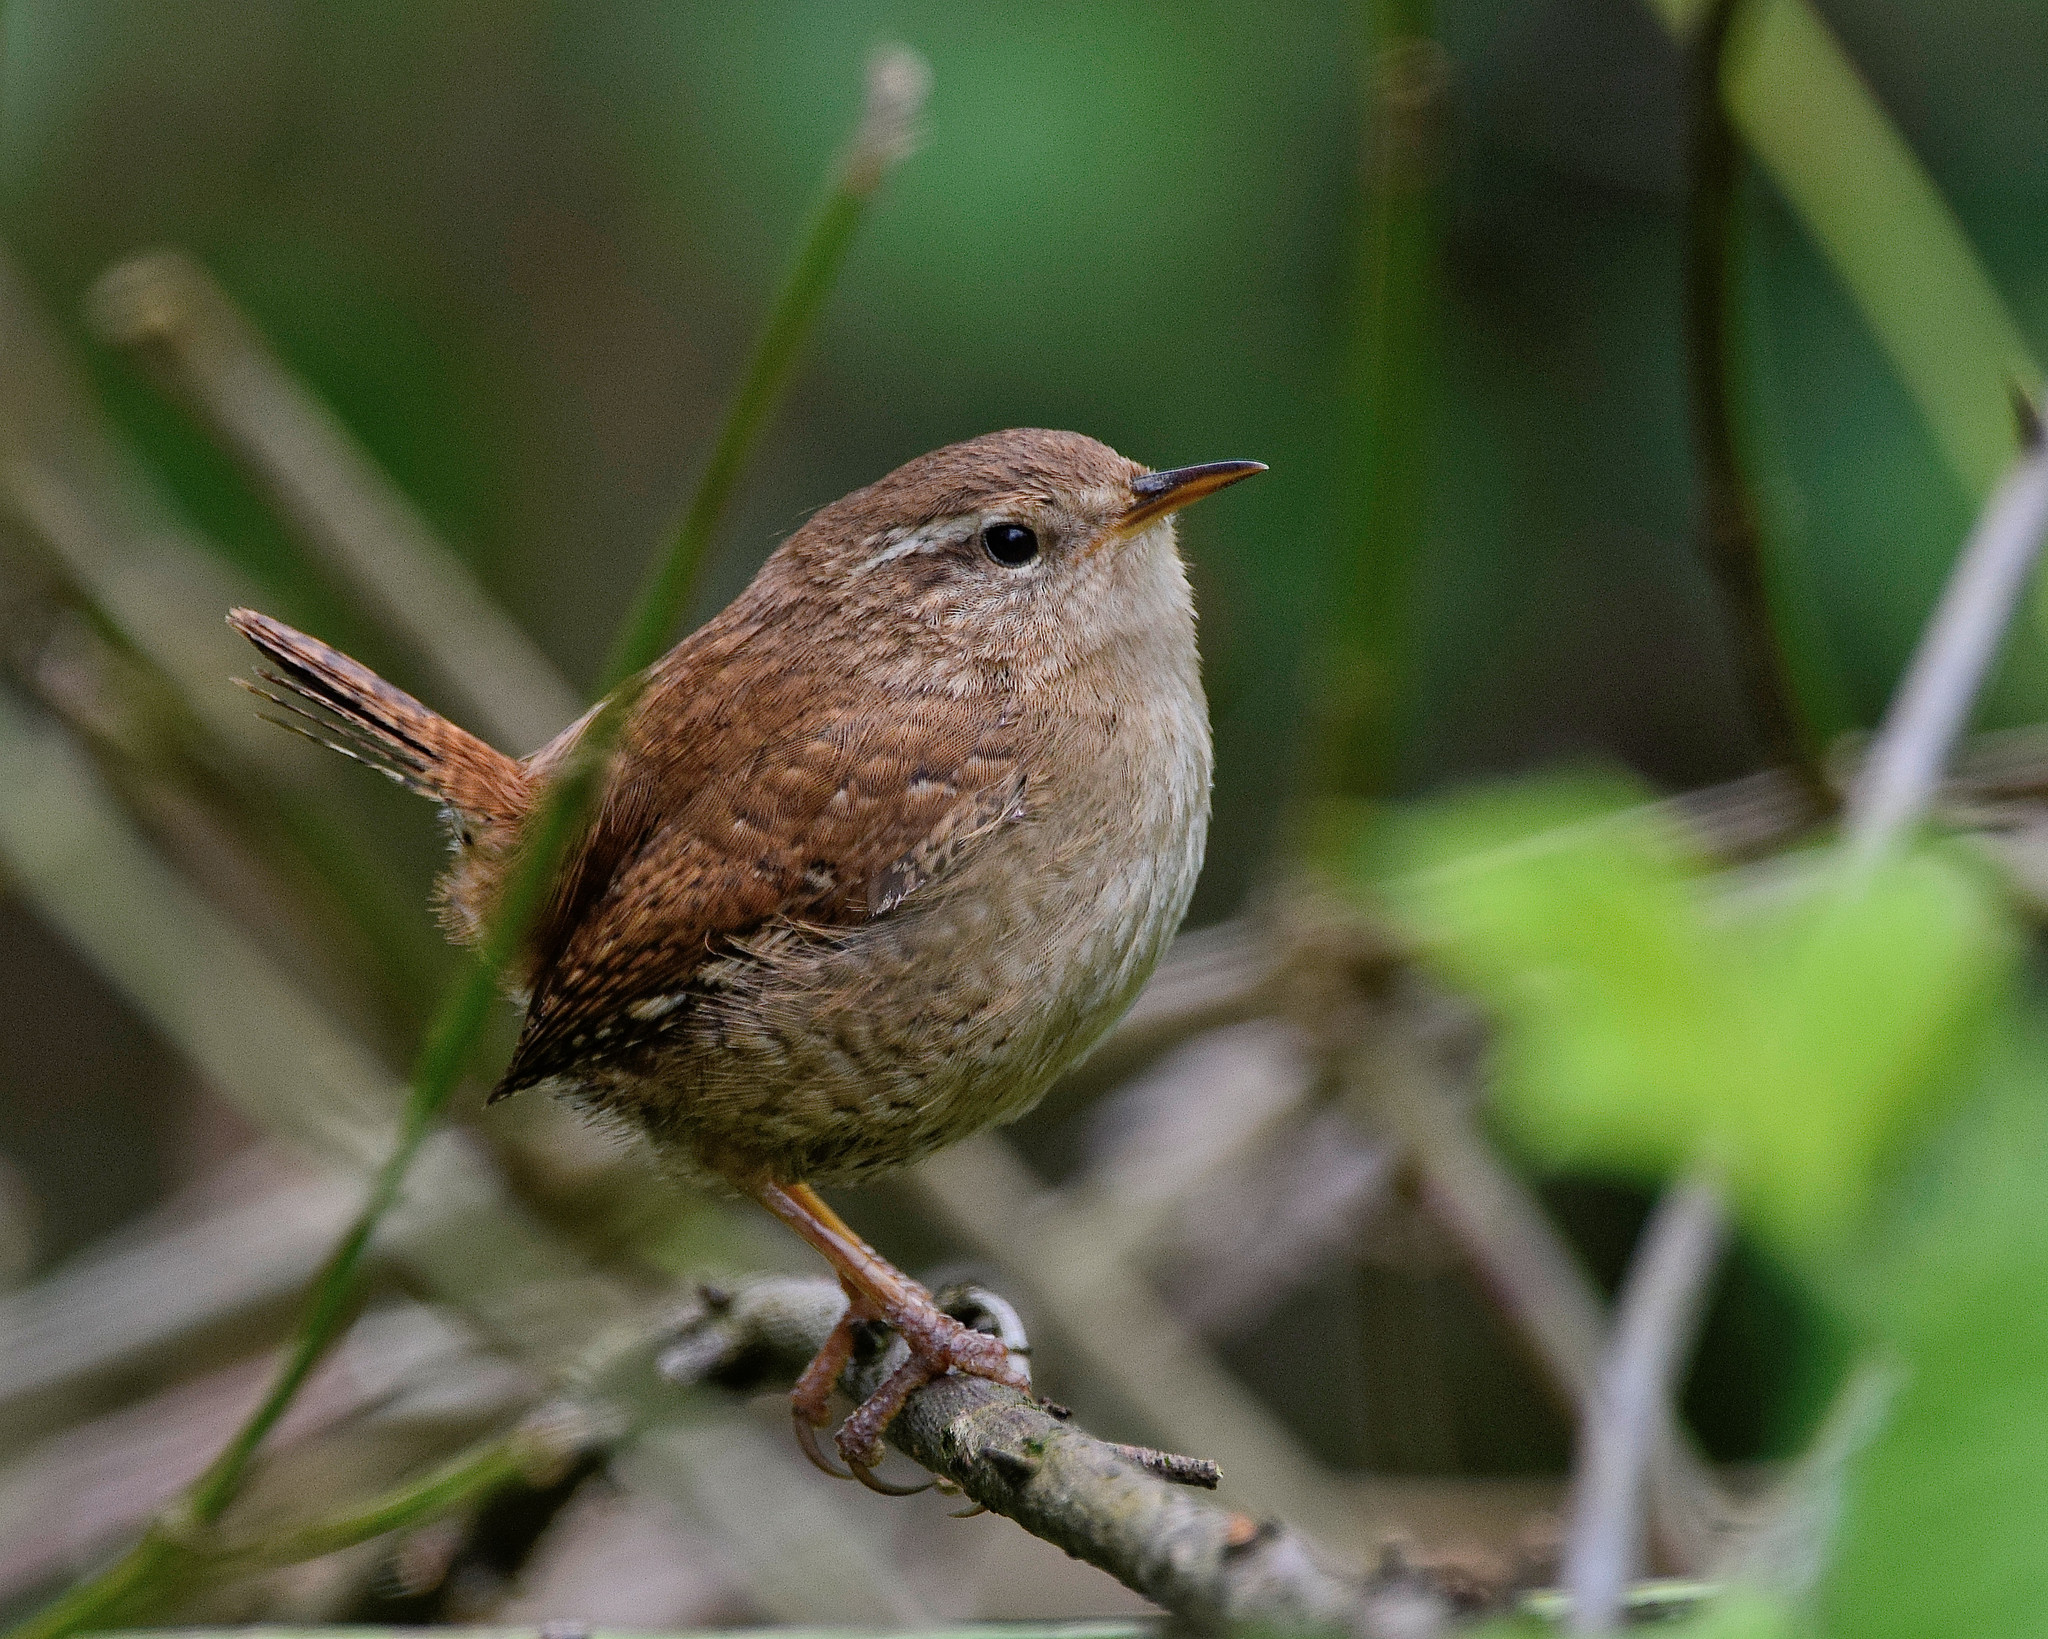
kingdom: Animalia
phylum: Chordata
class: Aves
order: Passeriformes
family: Troglodytidae
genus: Troglodytes
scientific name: Troglodytes troglodytes
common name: Eurasian wren
